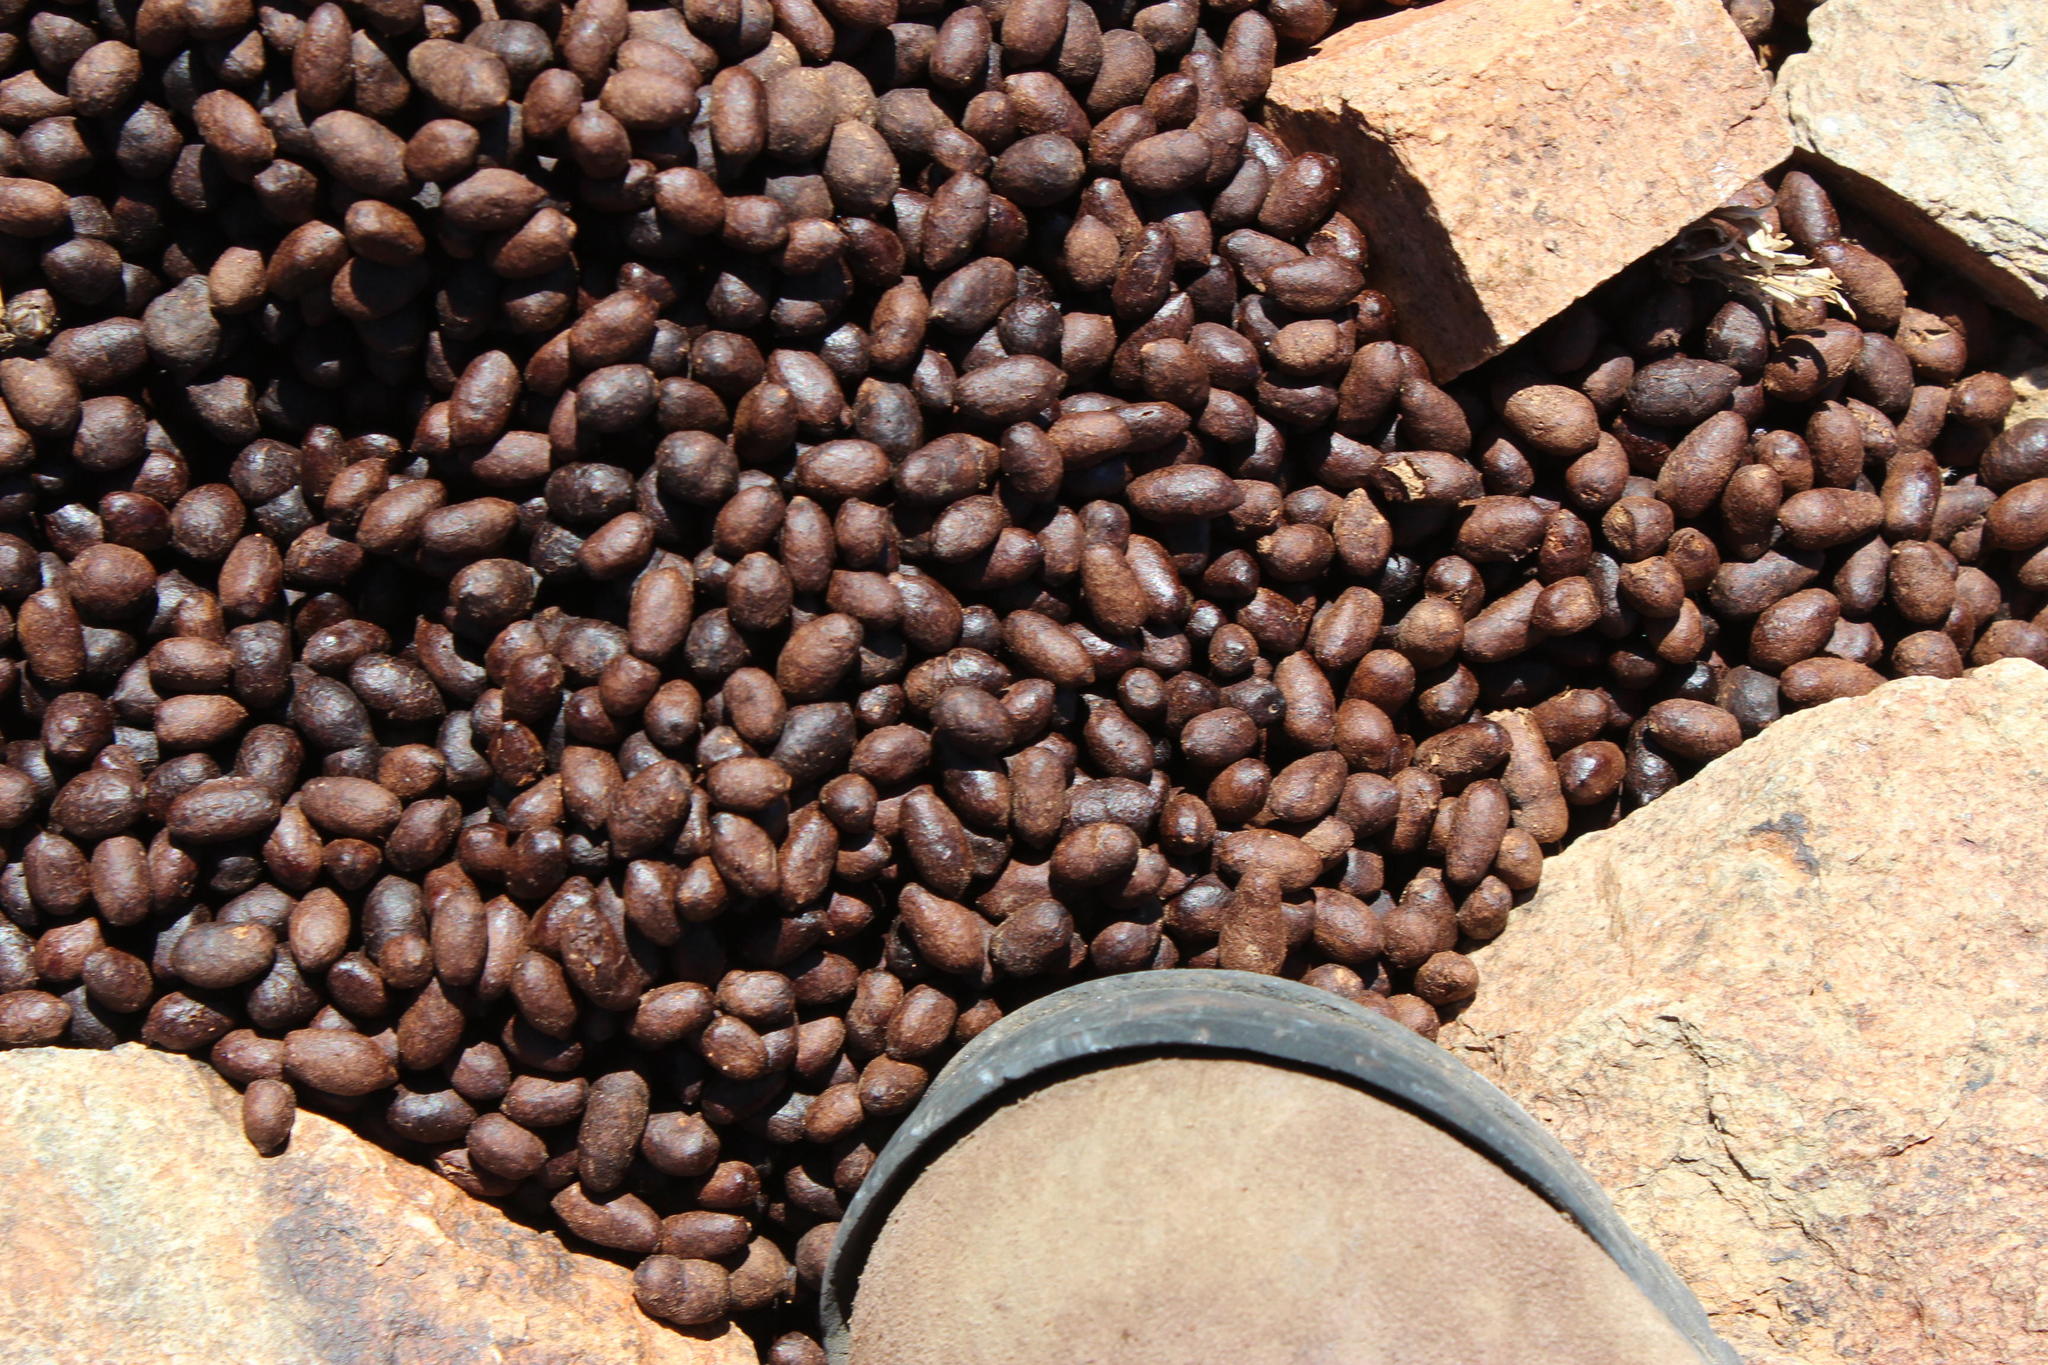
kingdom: Animalia
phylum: Chordata
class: Mammalia
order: Artiodactyla
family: Bovidae
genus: Oreotragus
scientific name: Oreotragus oreotragus
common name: Klipspringer
